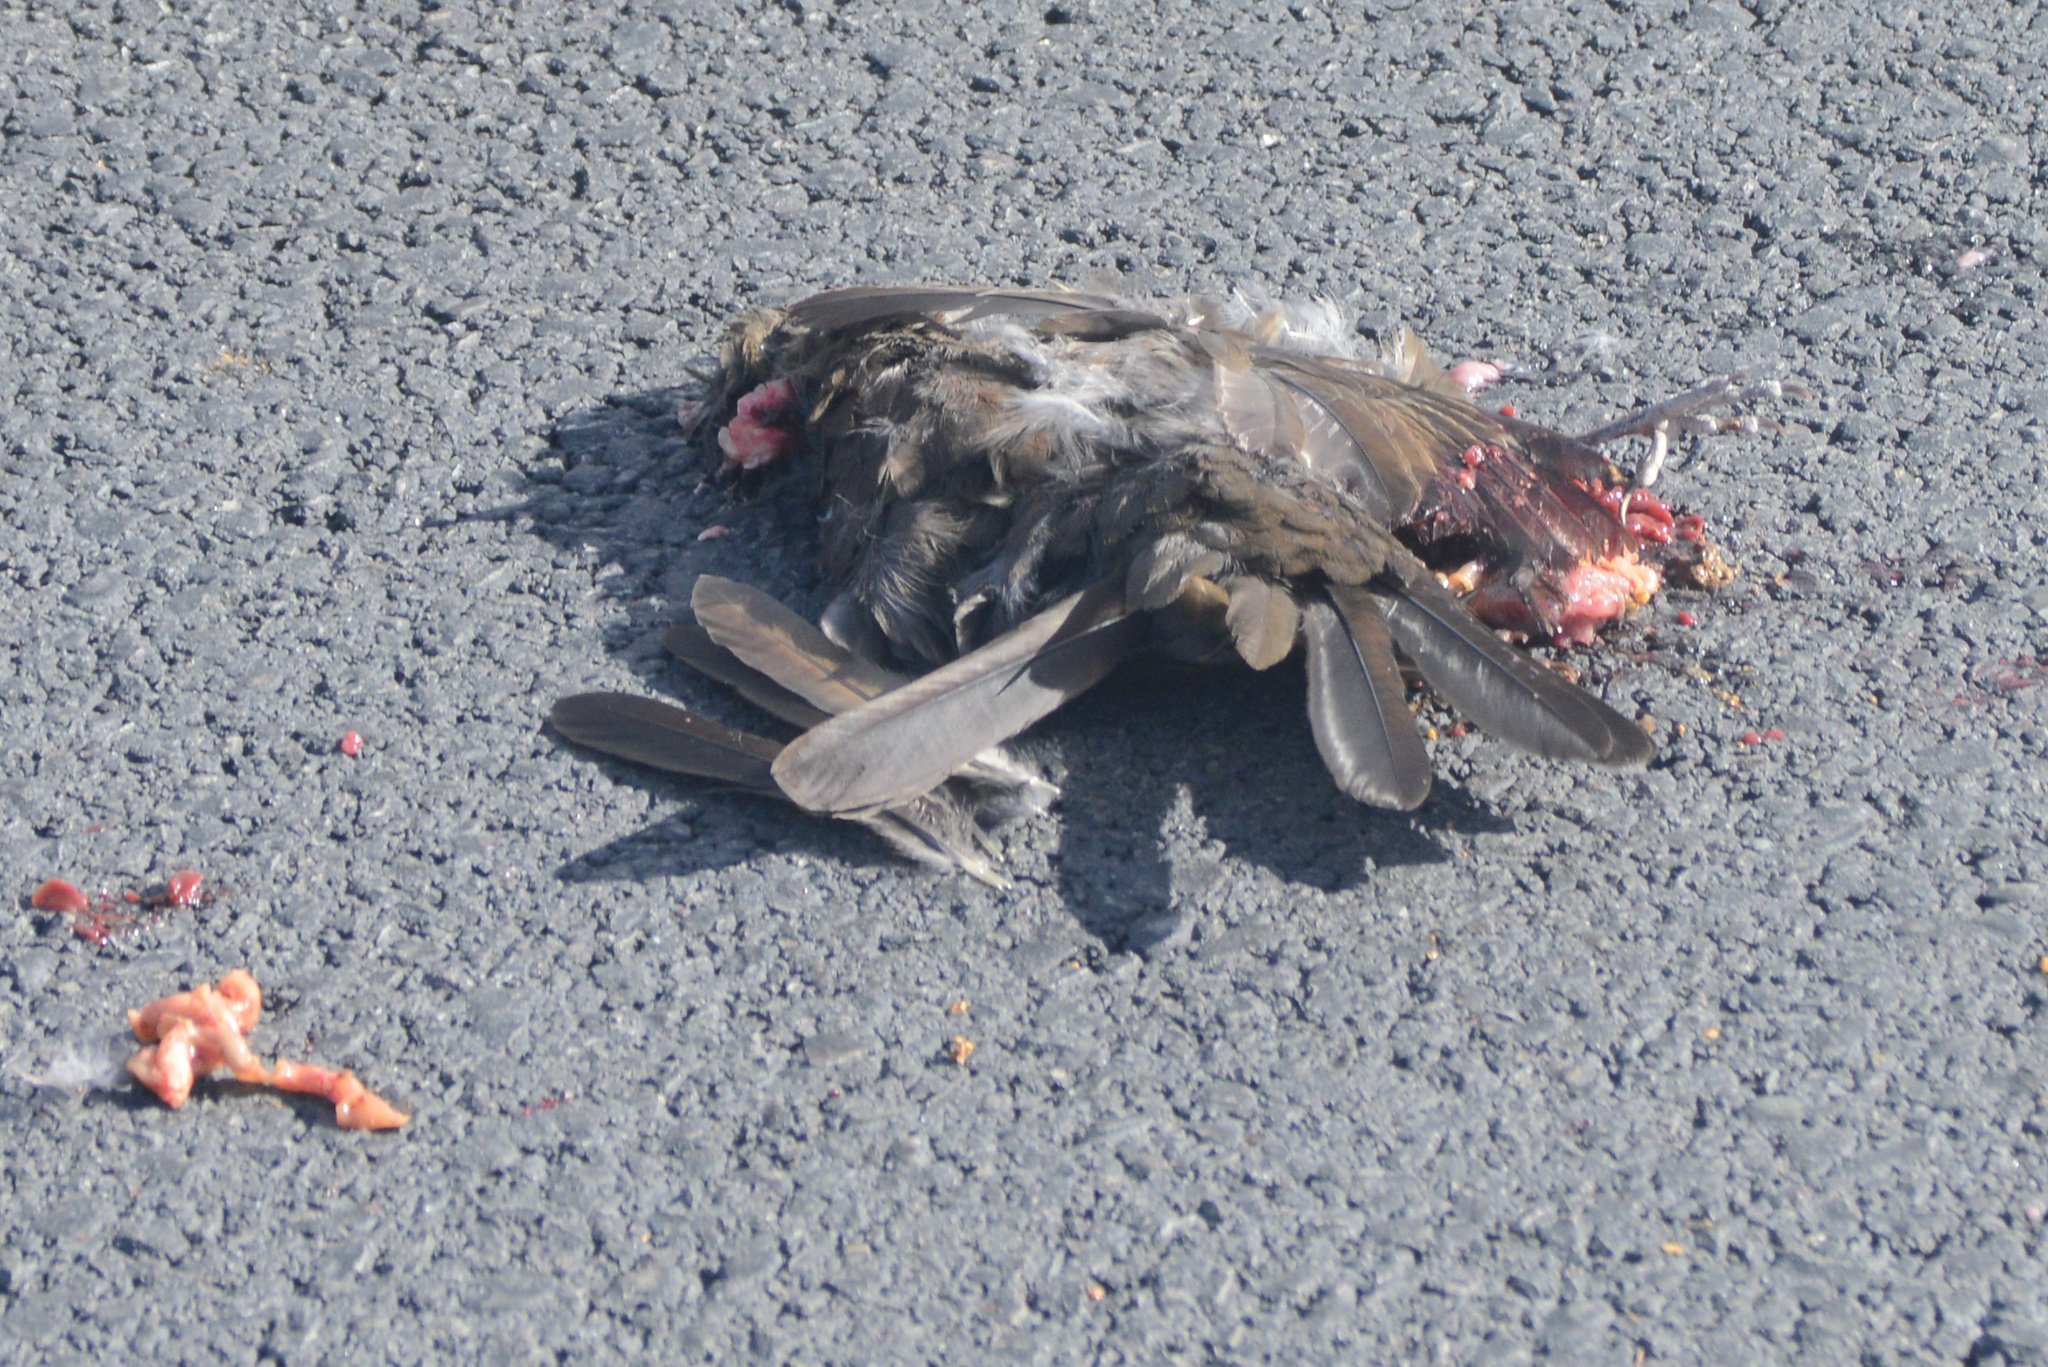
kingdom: Animalia
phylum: Chordata
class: Aves
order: Passeriformes
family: Turdidae
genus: Turdus
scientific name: Turdus merula
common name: Common blackbird
